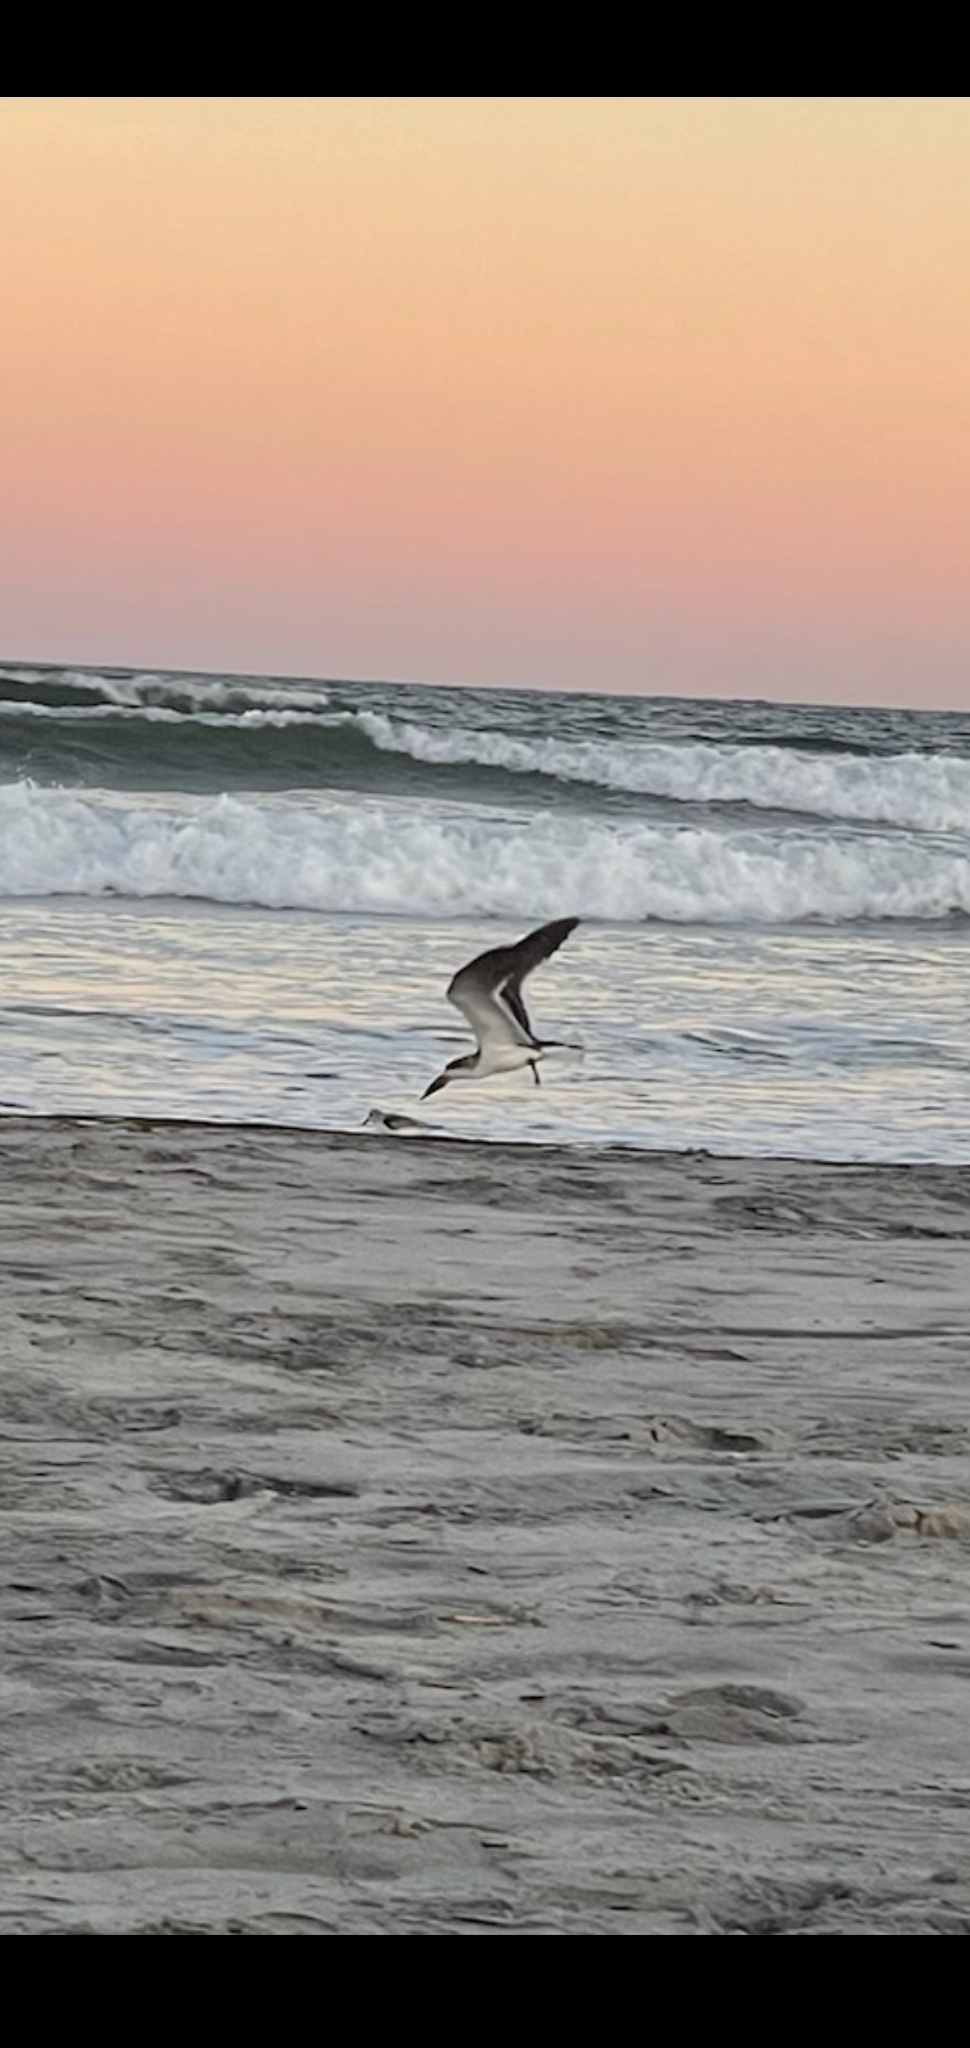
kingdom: Animalia
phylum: Chordata
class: Aves
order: Charadriiformes
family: Laridae
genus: Rynchops
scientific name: Rynchops niger
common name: Black skimmer
